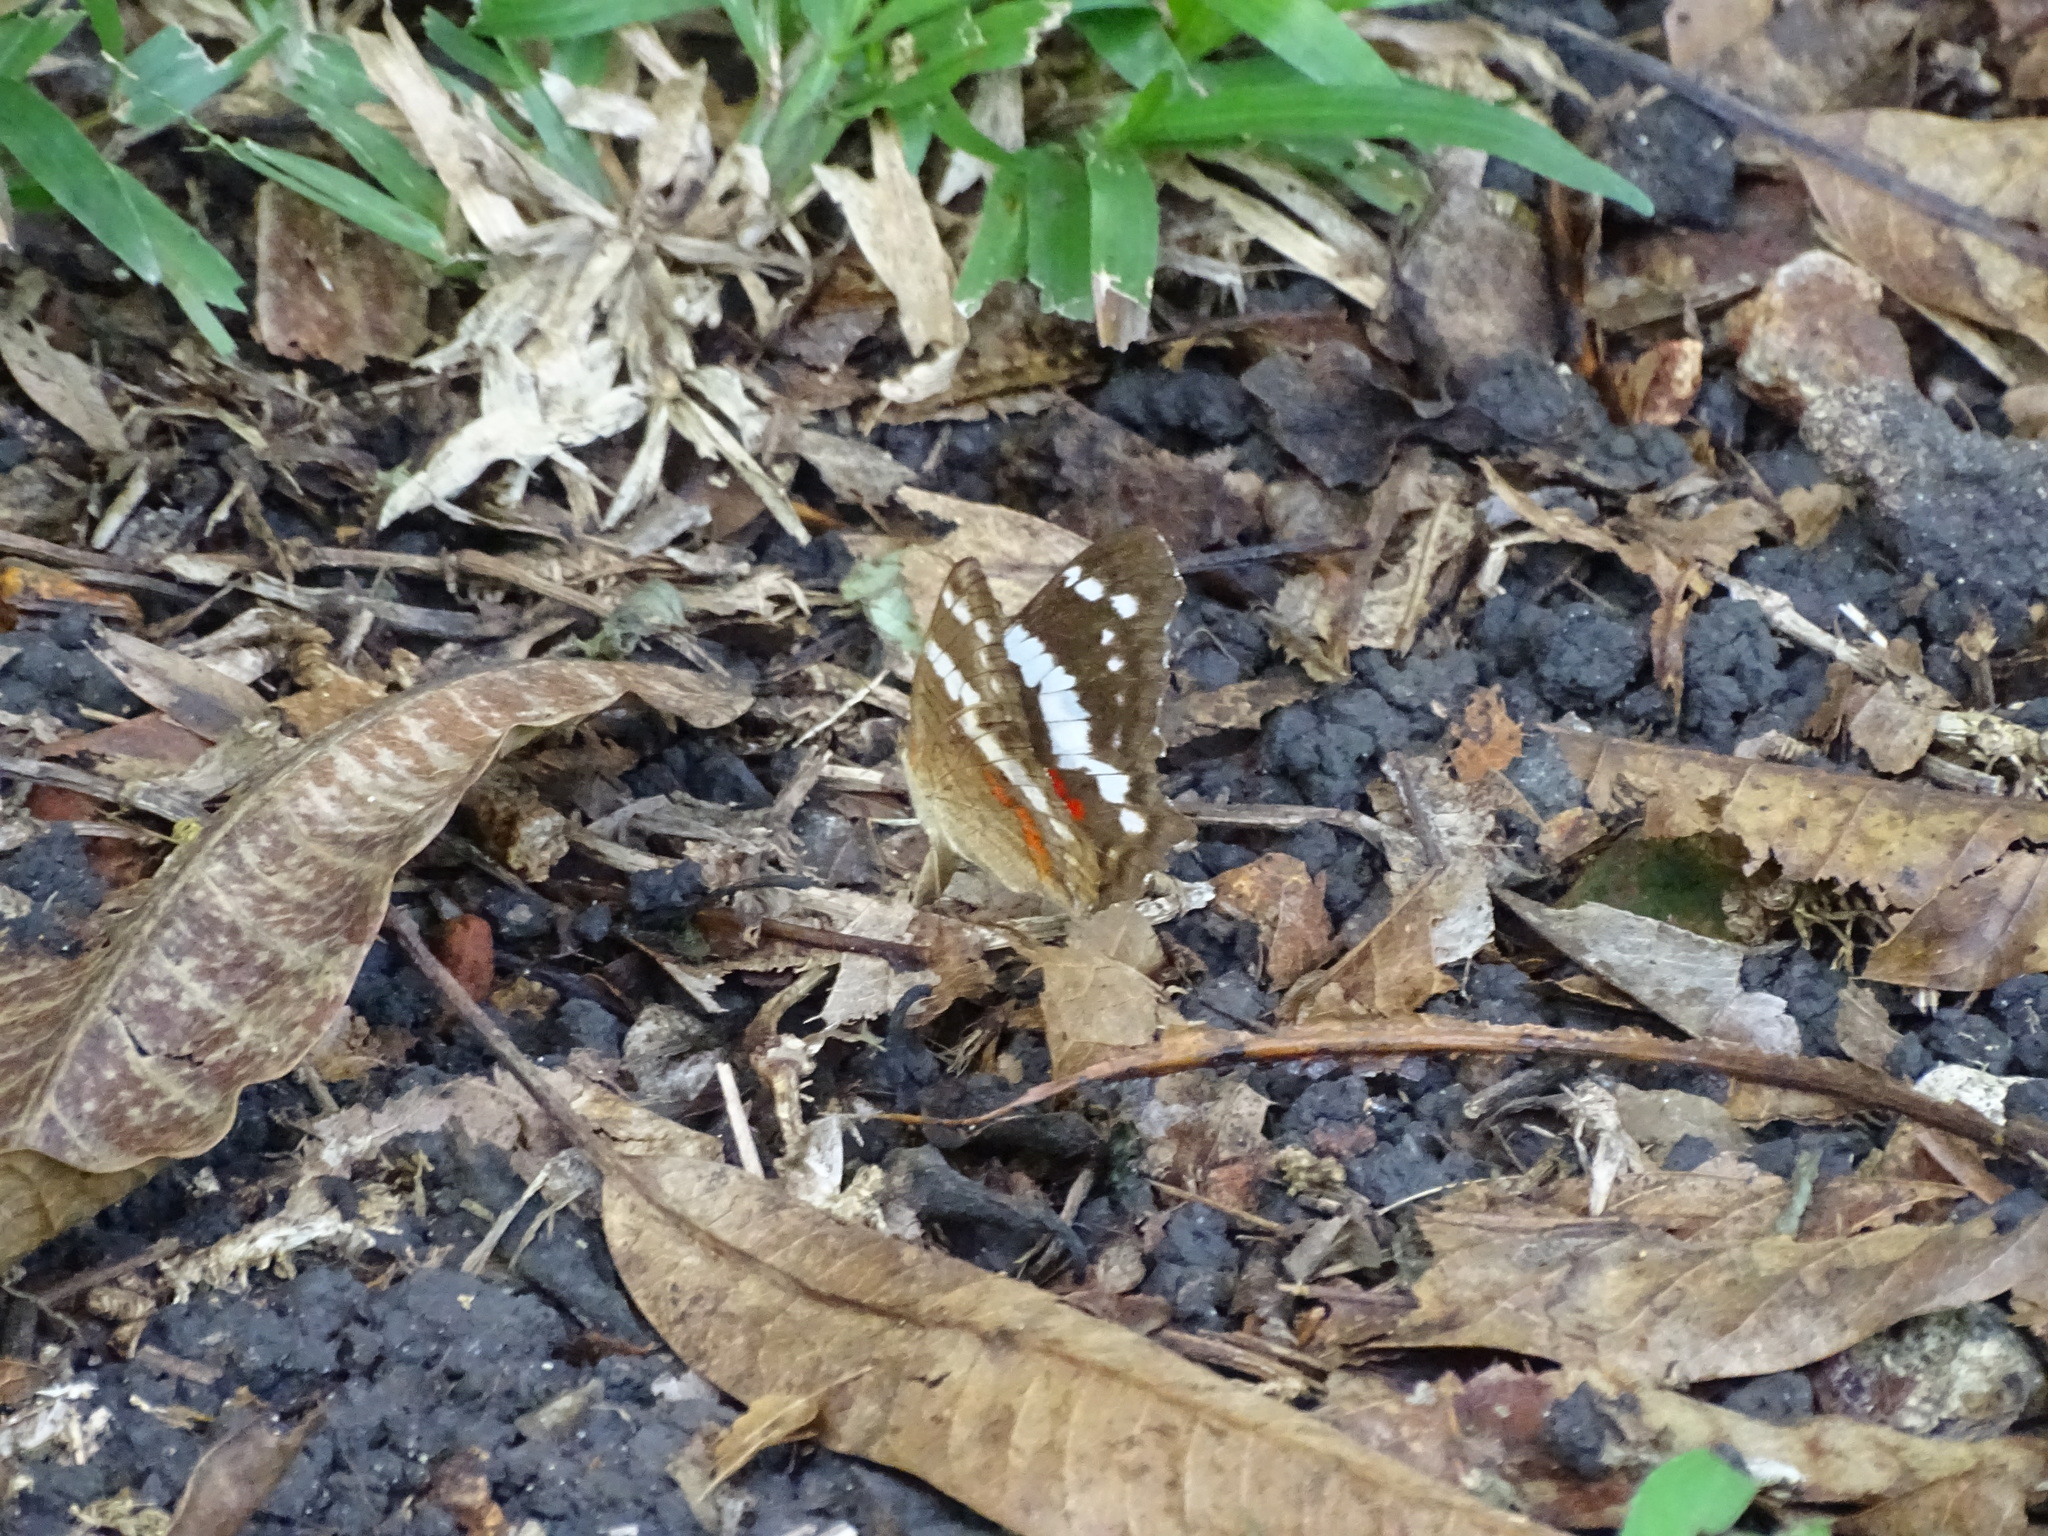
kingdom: Animalia
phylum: Arthropoda
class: Insecta
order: Lepidoptera
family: Nymphalidae
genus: Anartia
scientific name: Anartia fatima
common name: Banded peacock
